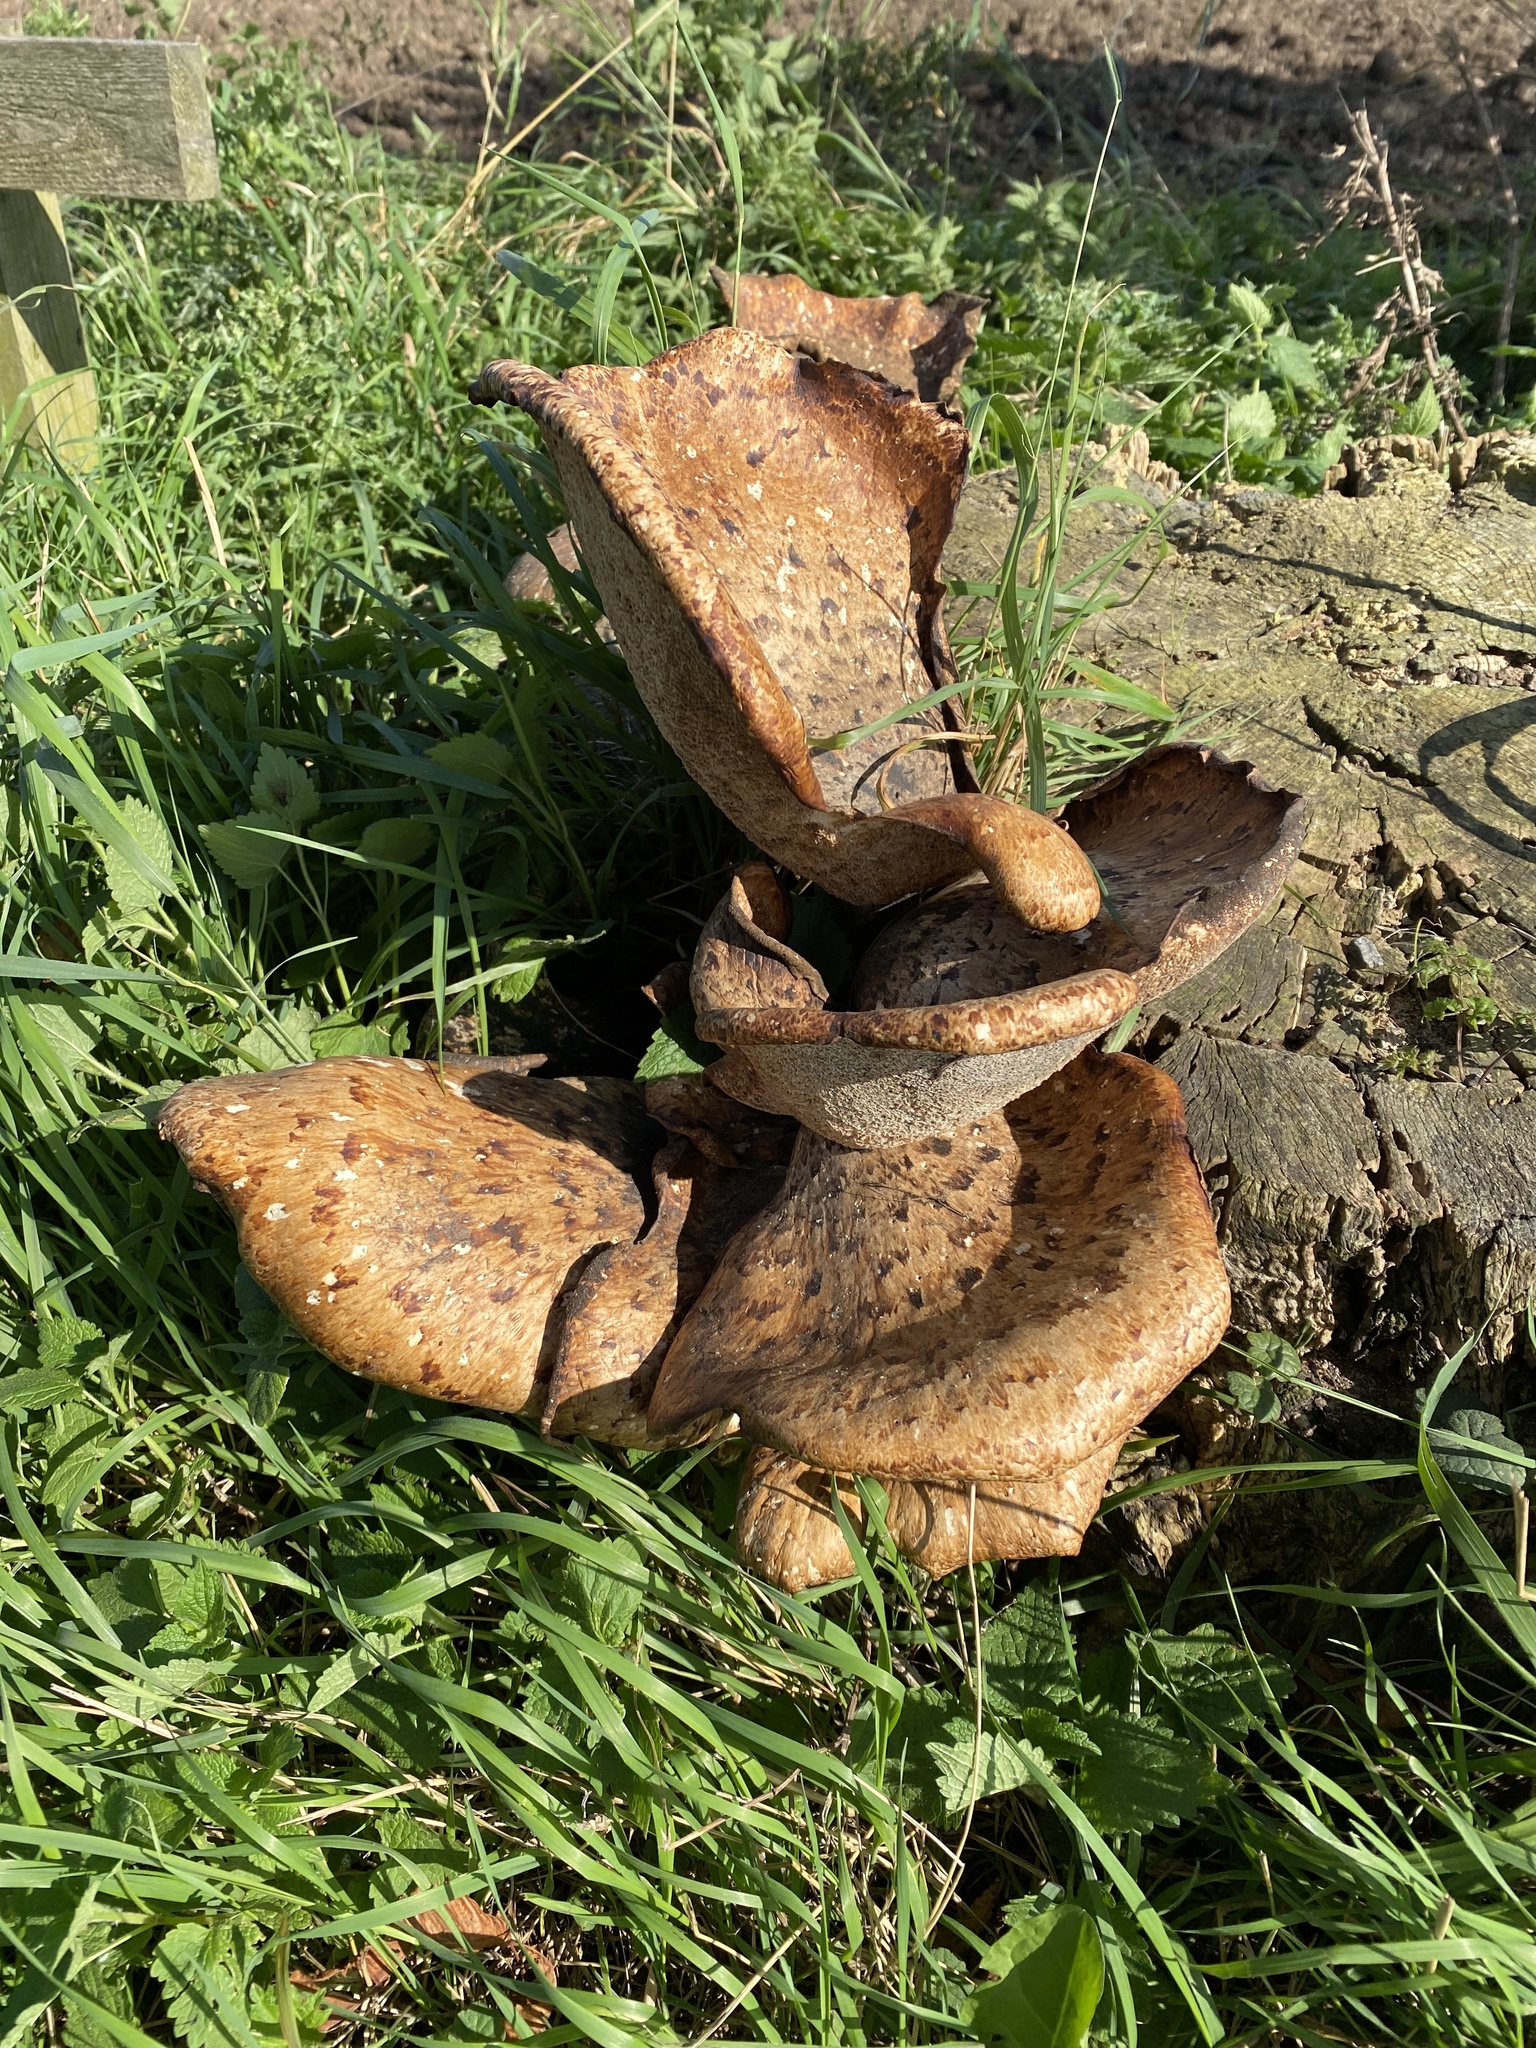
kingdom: Fungi
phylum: Basidiomycota
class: Agaricomycetes
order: Polyporales
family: Polyporaceae
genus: Cerioporus
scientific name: Cerioporus squamosus
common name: Dryad's saddle
